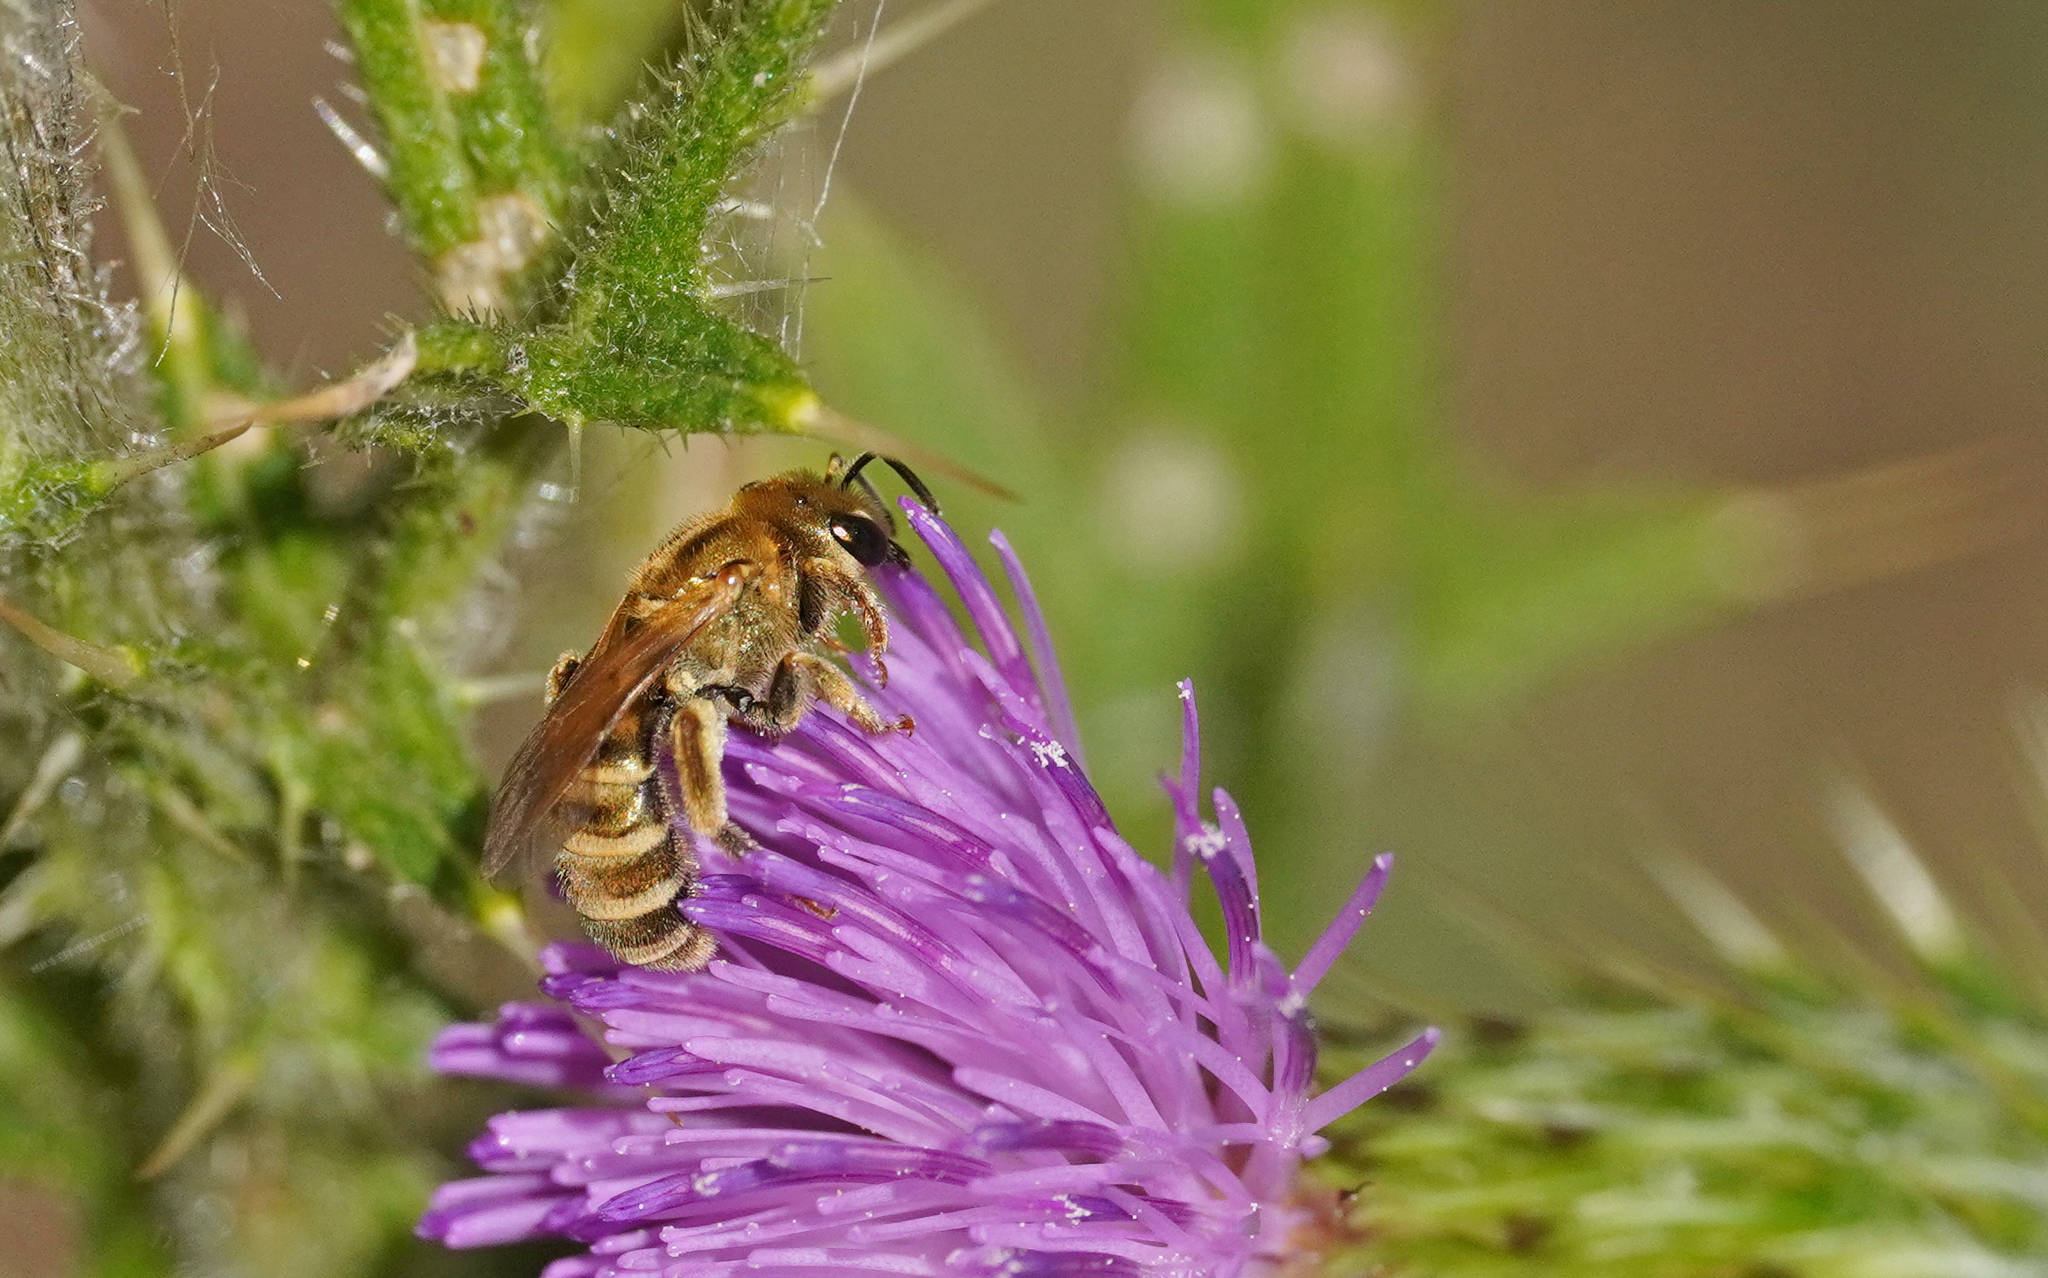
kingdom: Animalia
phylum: Arthropoda
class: Insecta
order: Hymenoptera
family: Halictidae
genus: Halictus
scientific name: Halictus subauratus
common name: Golden furrow bee
